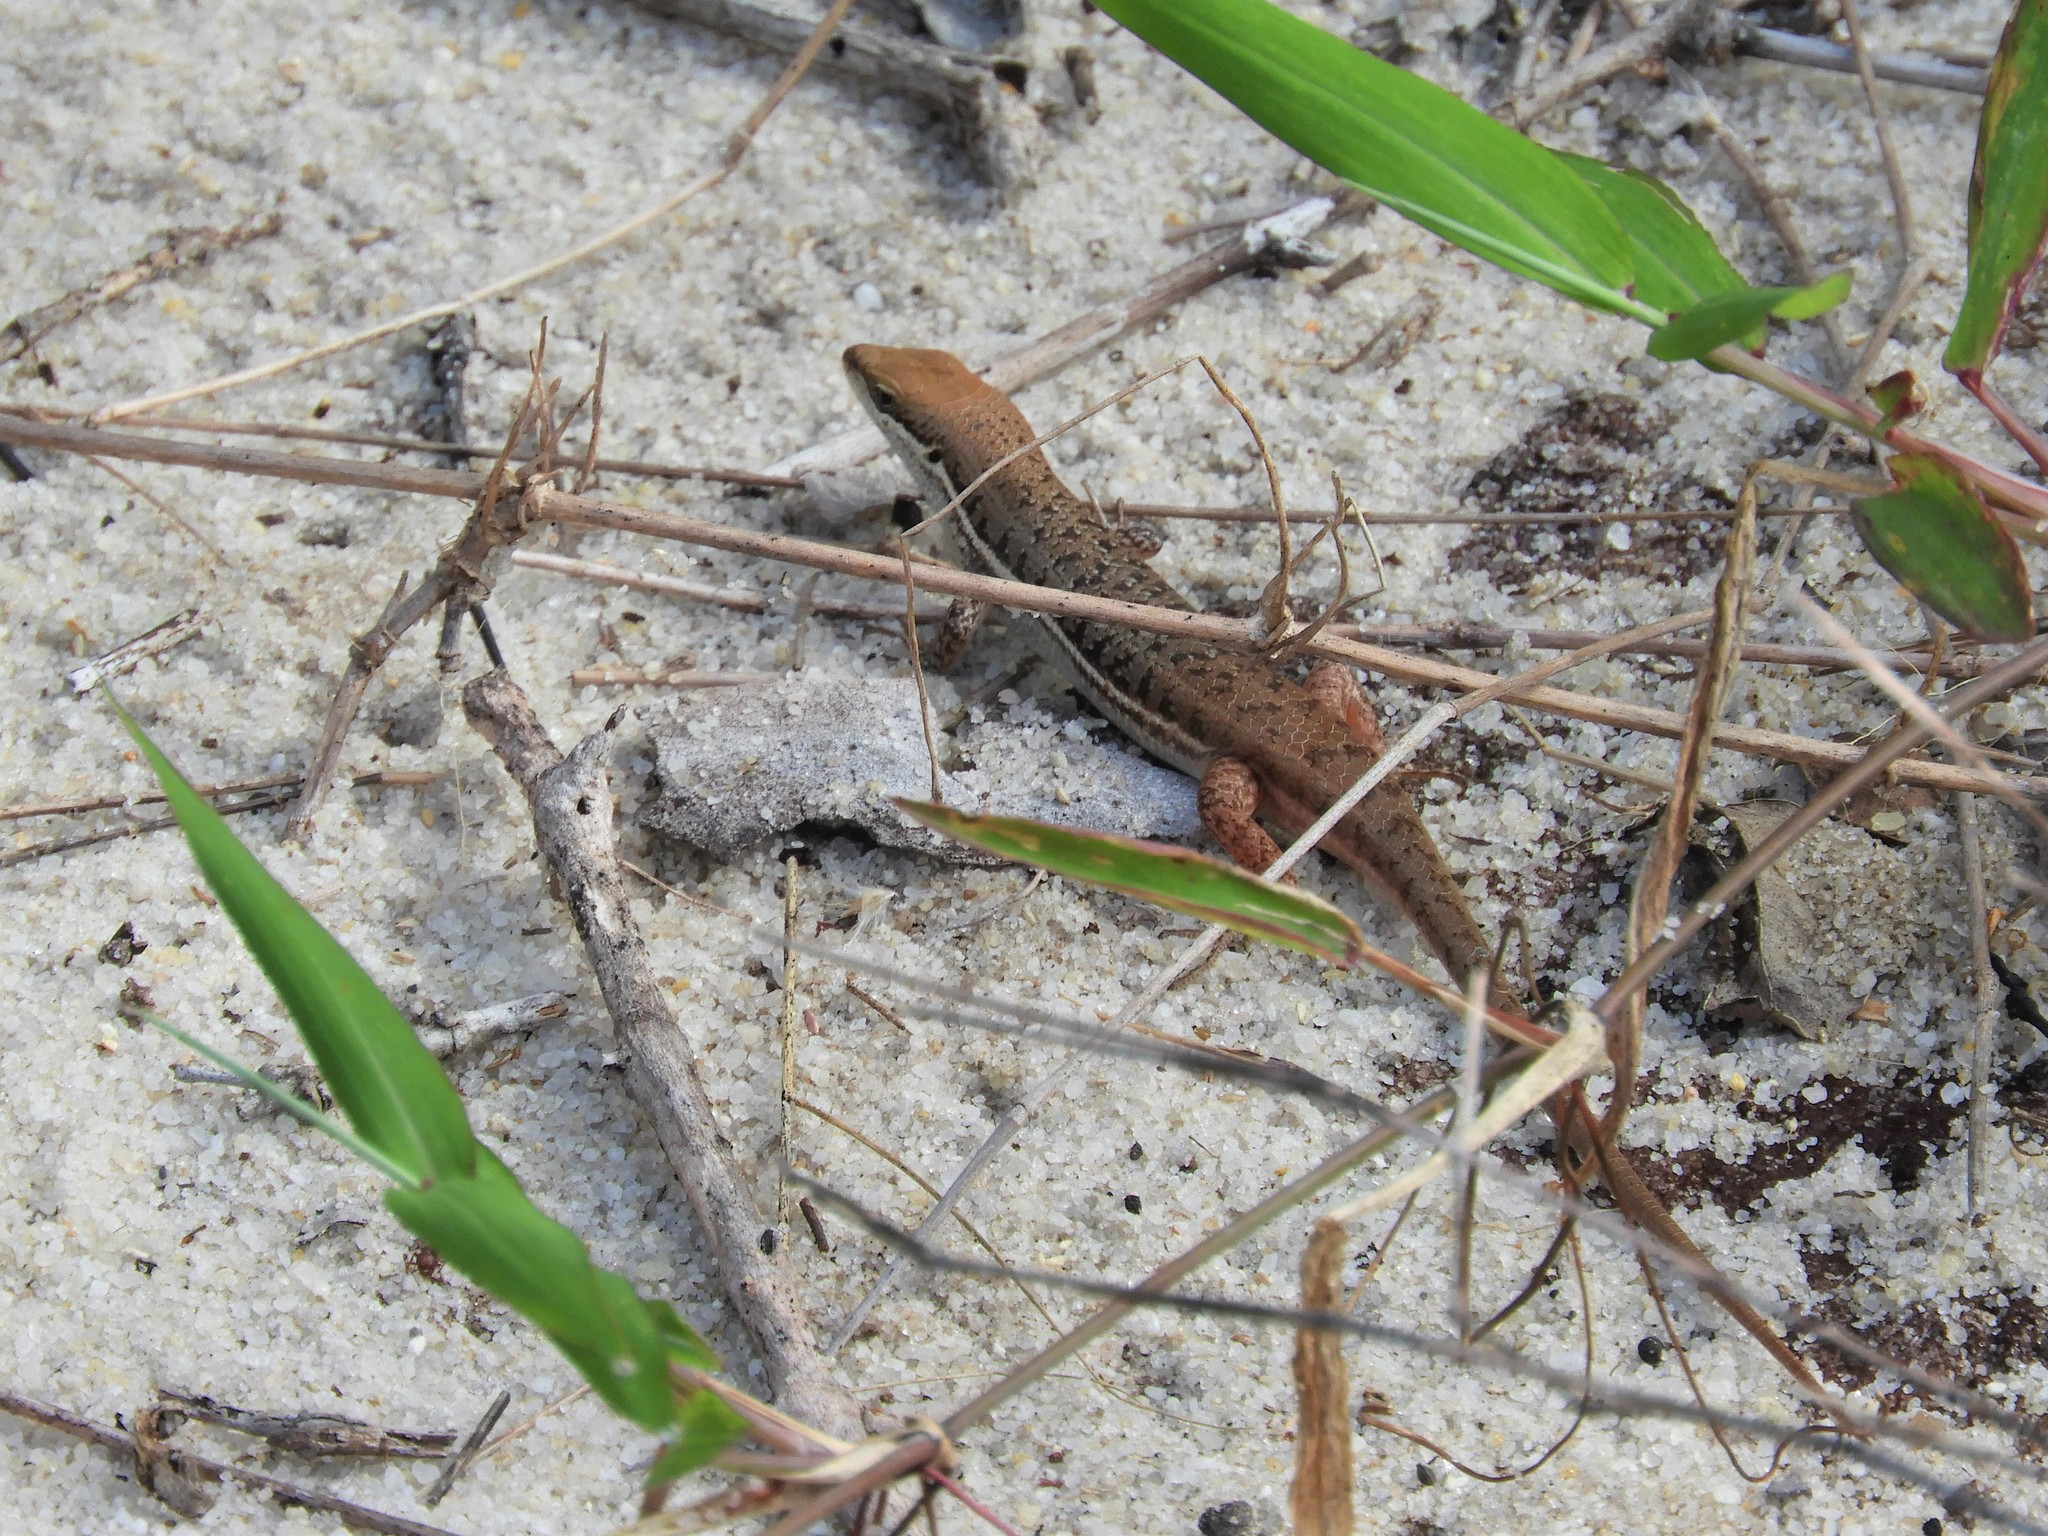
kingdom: Animalia
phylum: Chordata
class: Squamata
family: Scincidae
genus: Trachylepis
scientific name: Trachylepis varia
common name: Eastern variable skink
